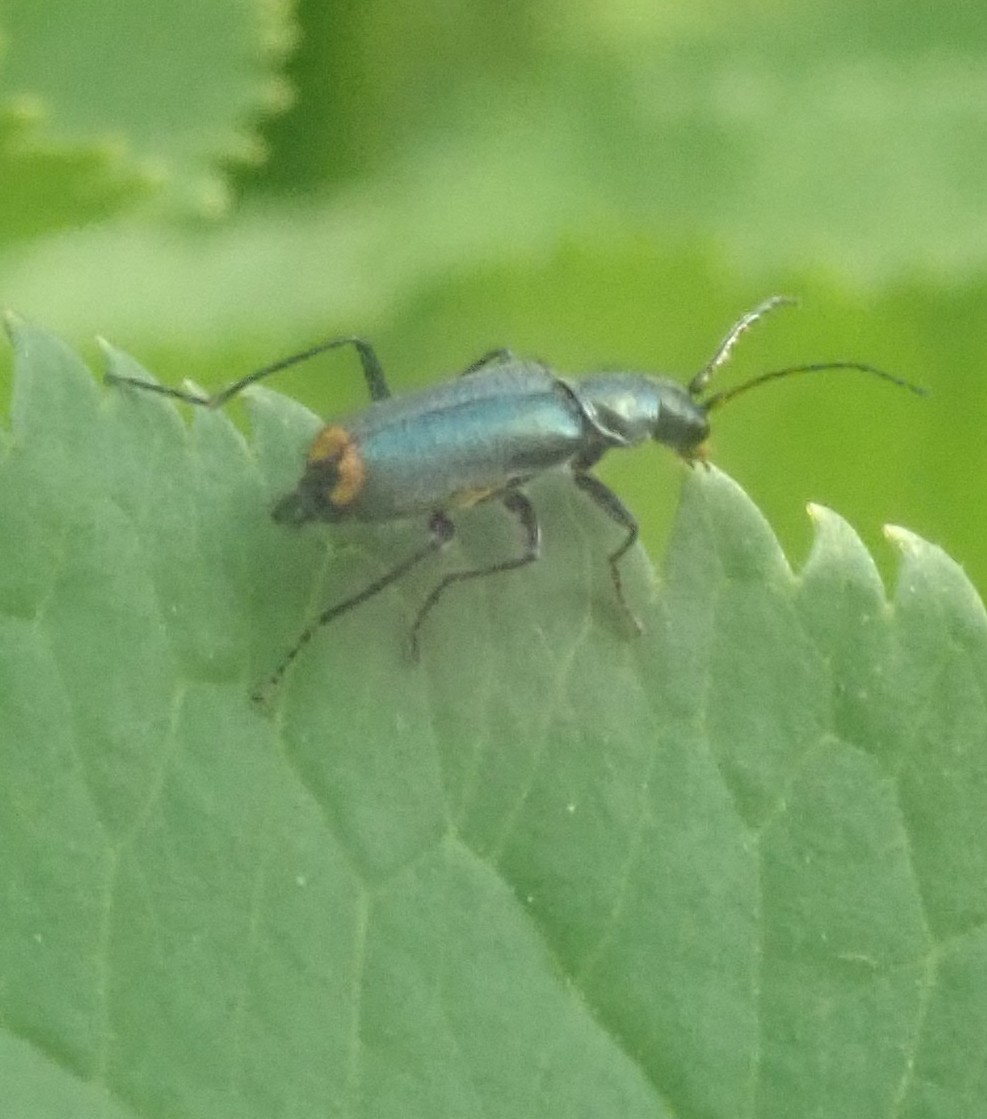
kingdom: Animalia
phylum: Arthropoda
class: Insecta
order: Coleoptera
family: Malachiidae
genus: Clanoptilus
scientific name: Clanoptilus marginellus
